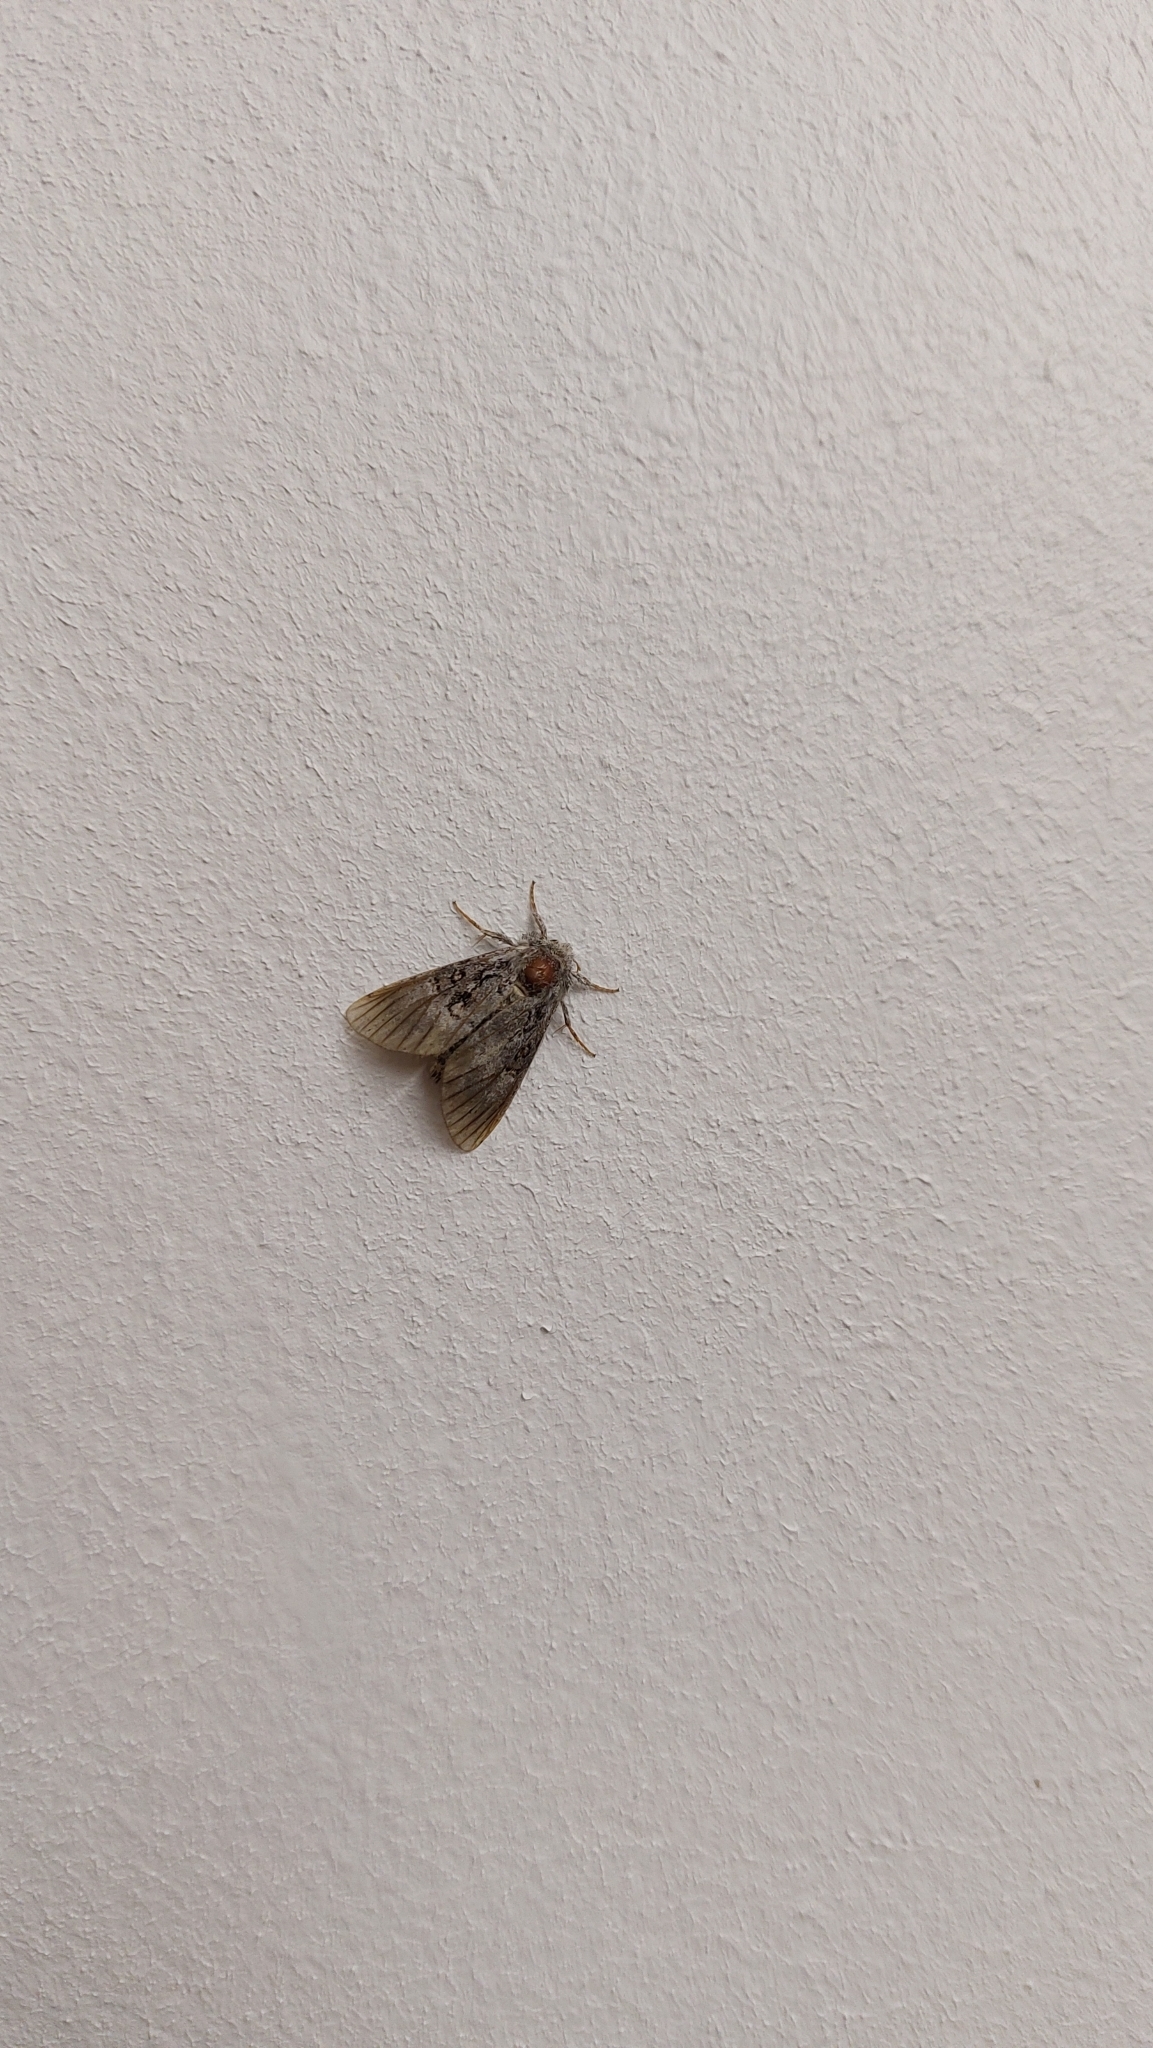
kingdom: Animalia
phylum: Arthropoda
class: Insecta
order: Lepidoptera
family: Noctuidae
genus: Colocasia
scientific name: Colocasia coryli
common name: Nut-tree tussock
